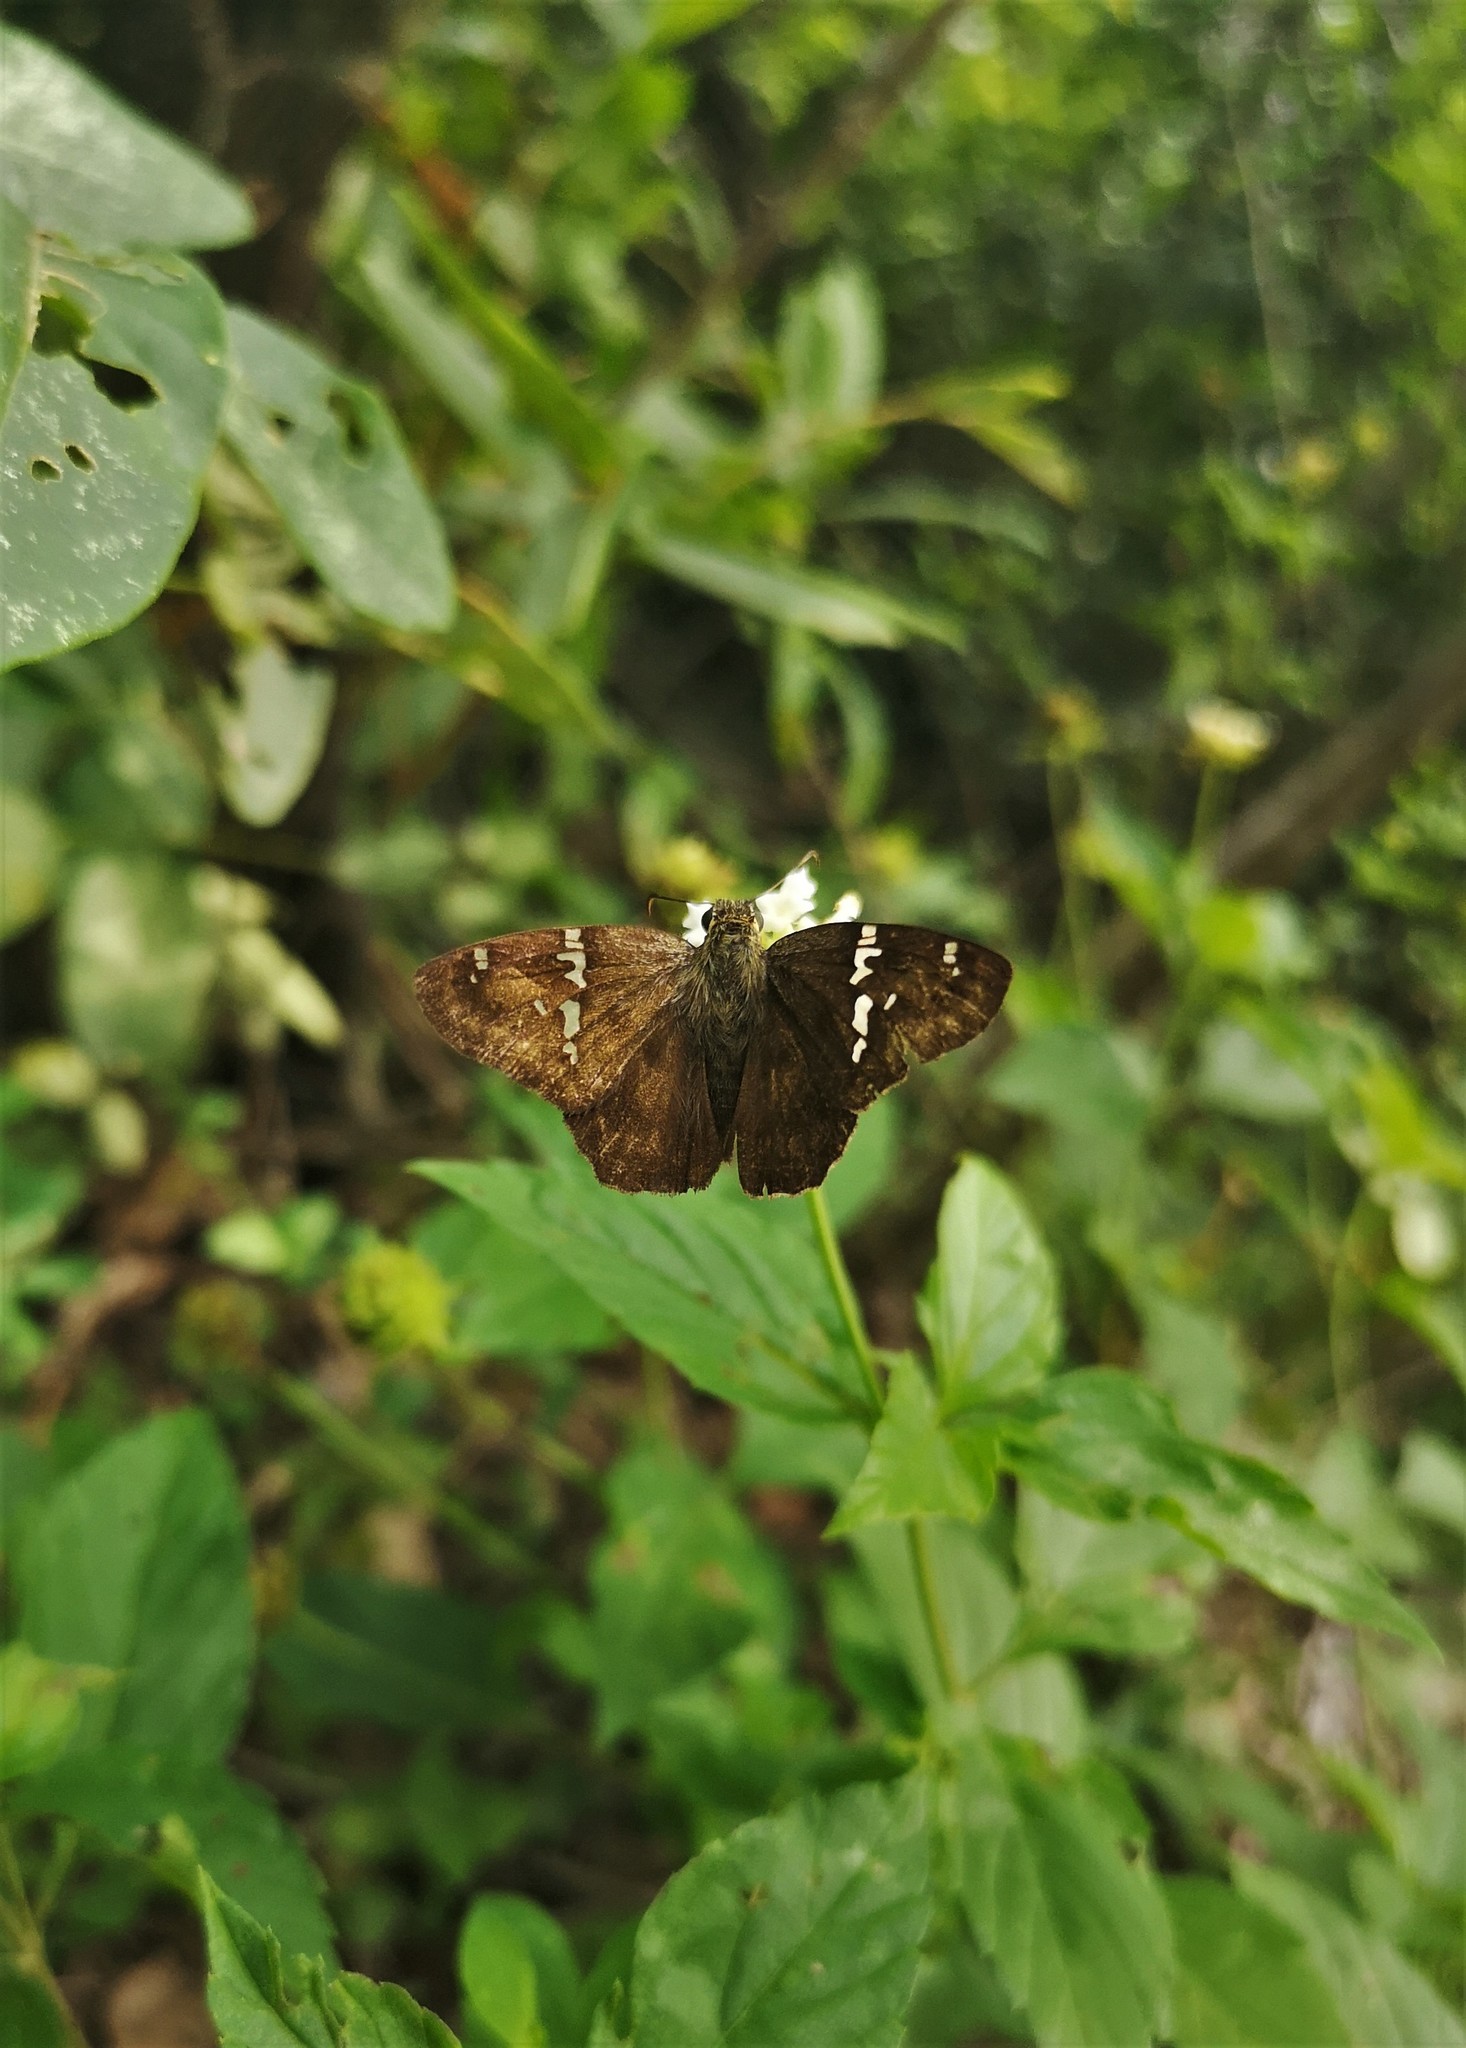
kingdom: Animalia
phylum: Arthropoda
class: Insecta
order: Lepidoptera
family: Hesperiidae
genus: Autochton
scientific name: Autochton potrillo
